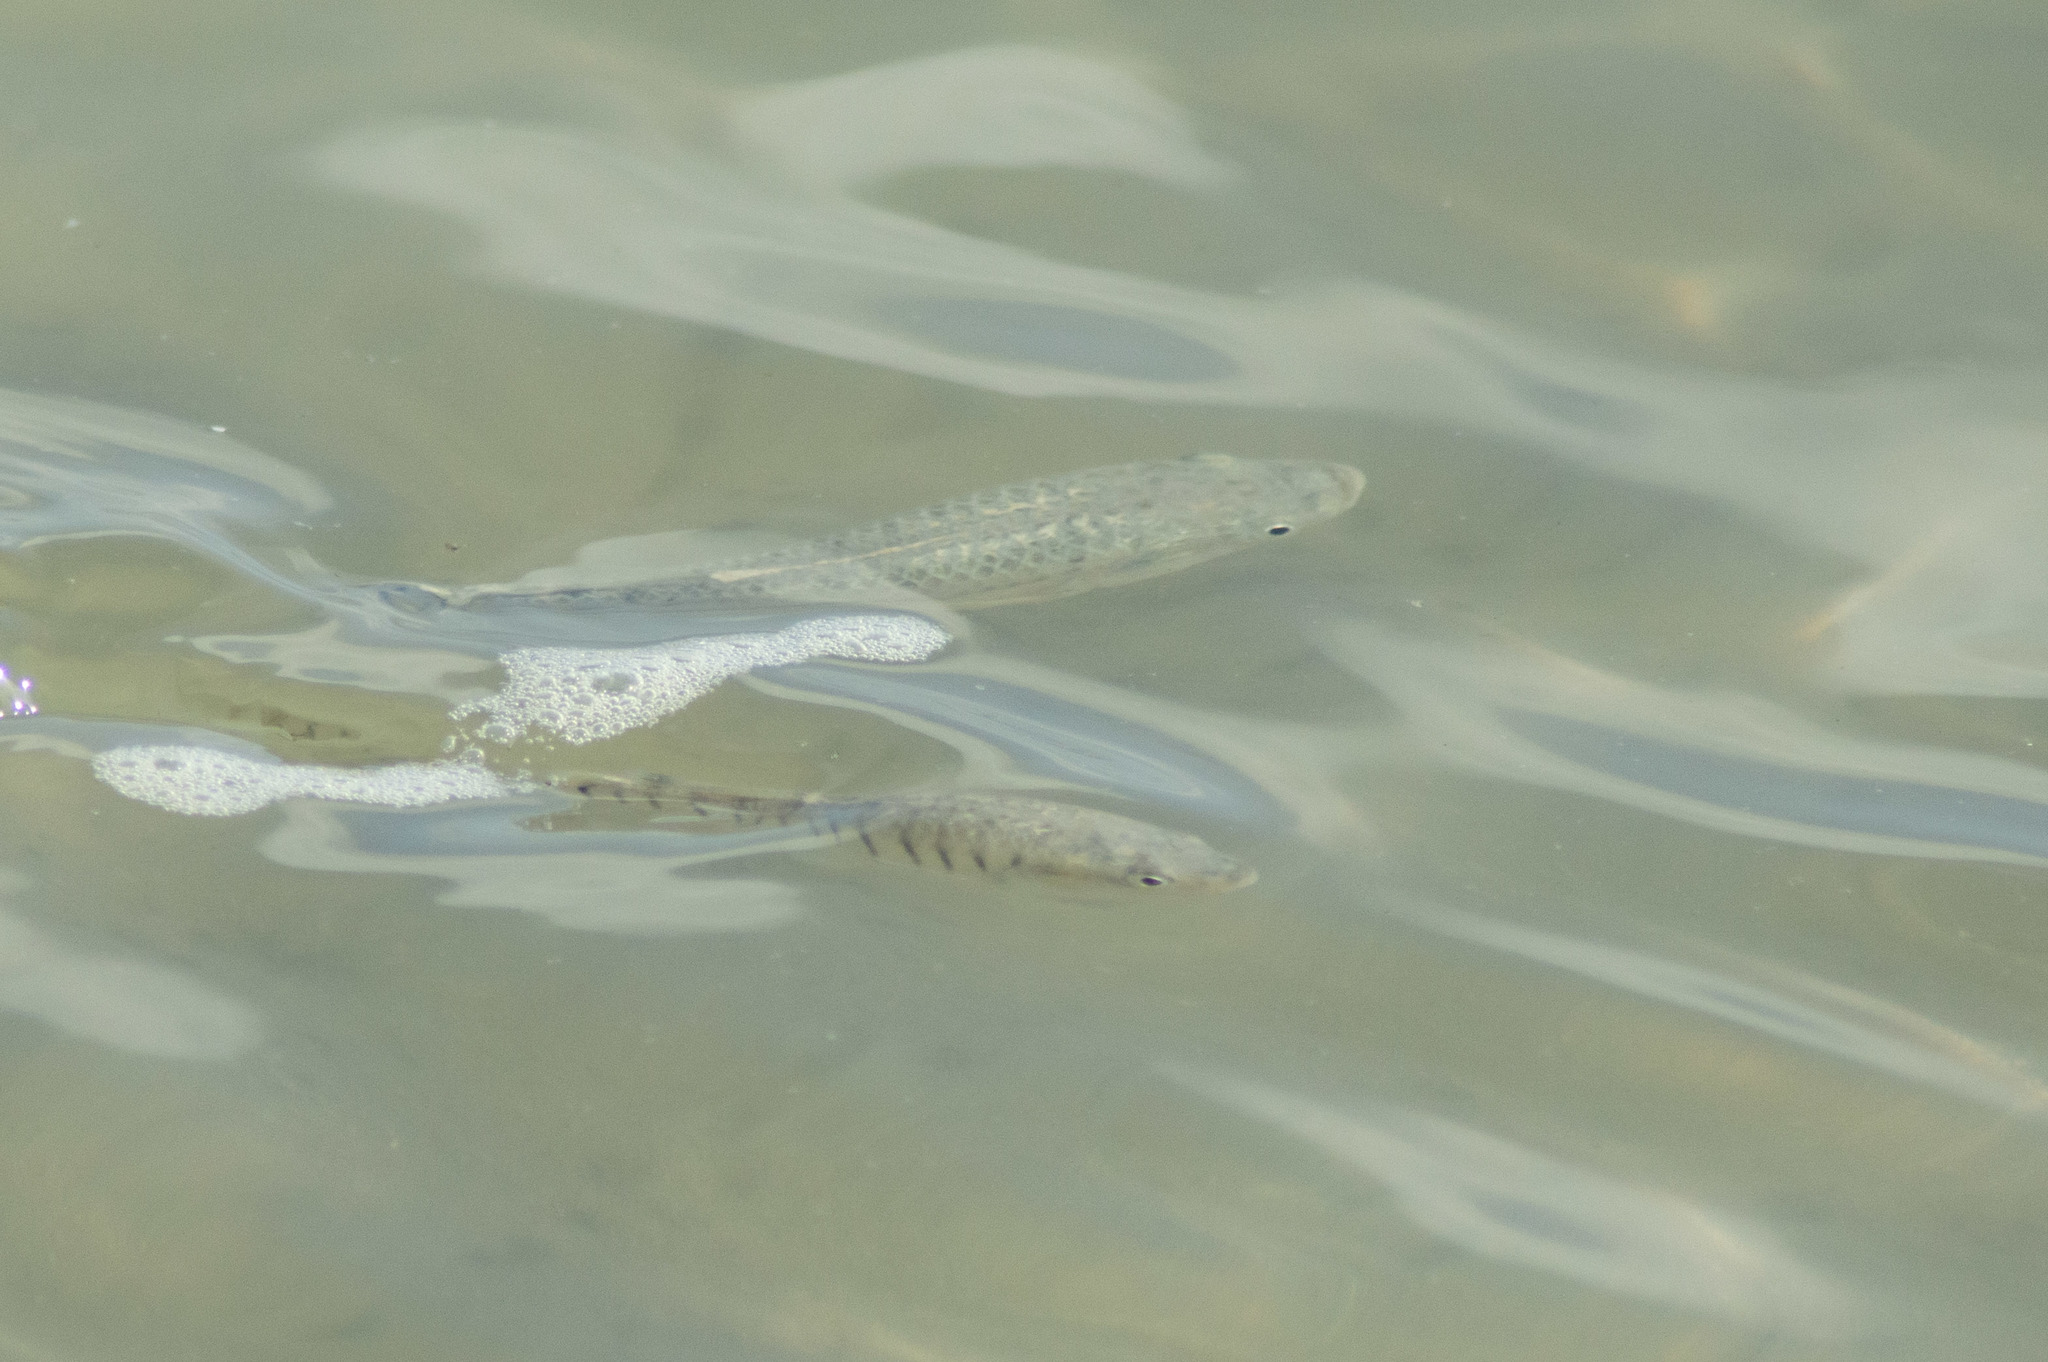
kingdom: Animalia
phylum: Chordata
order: Cyprinodontiformes
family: Fundulidae
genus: Fundulus
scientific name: Fundulus majalis
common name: Striped killifish
